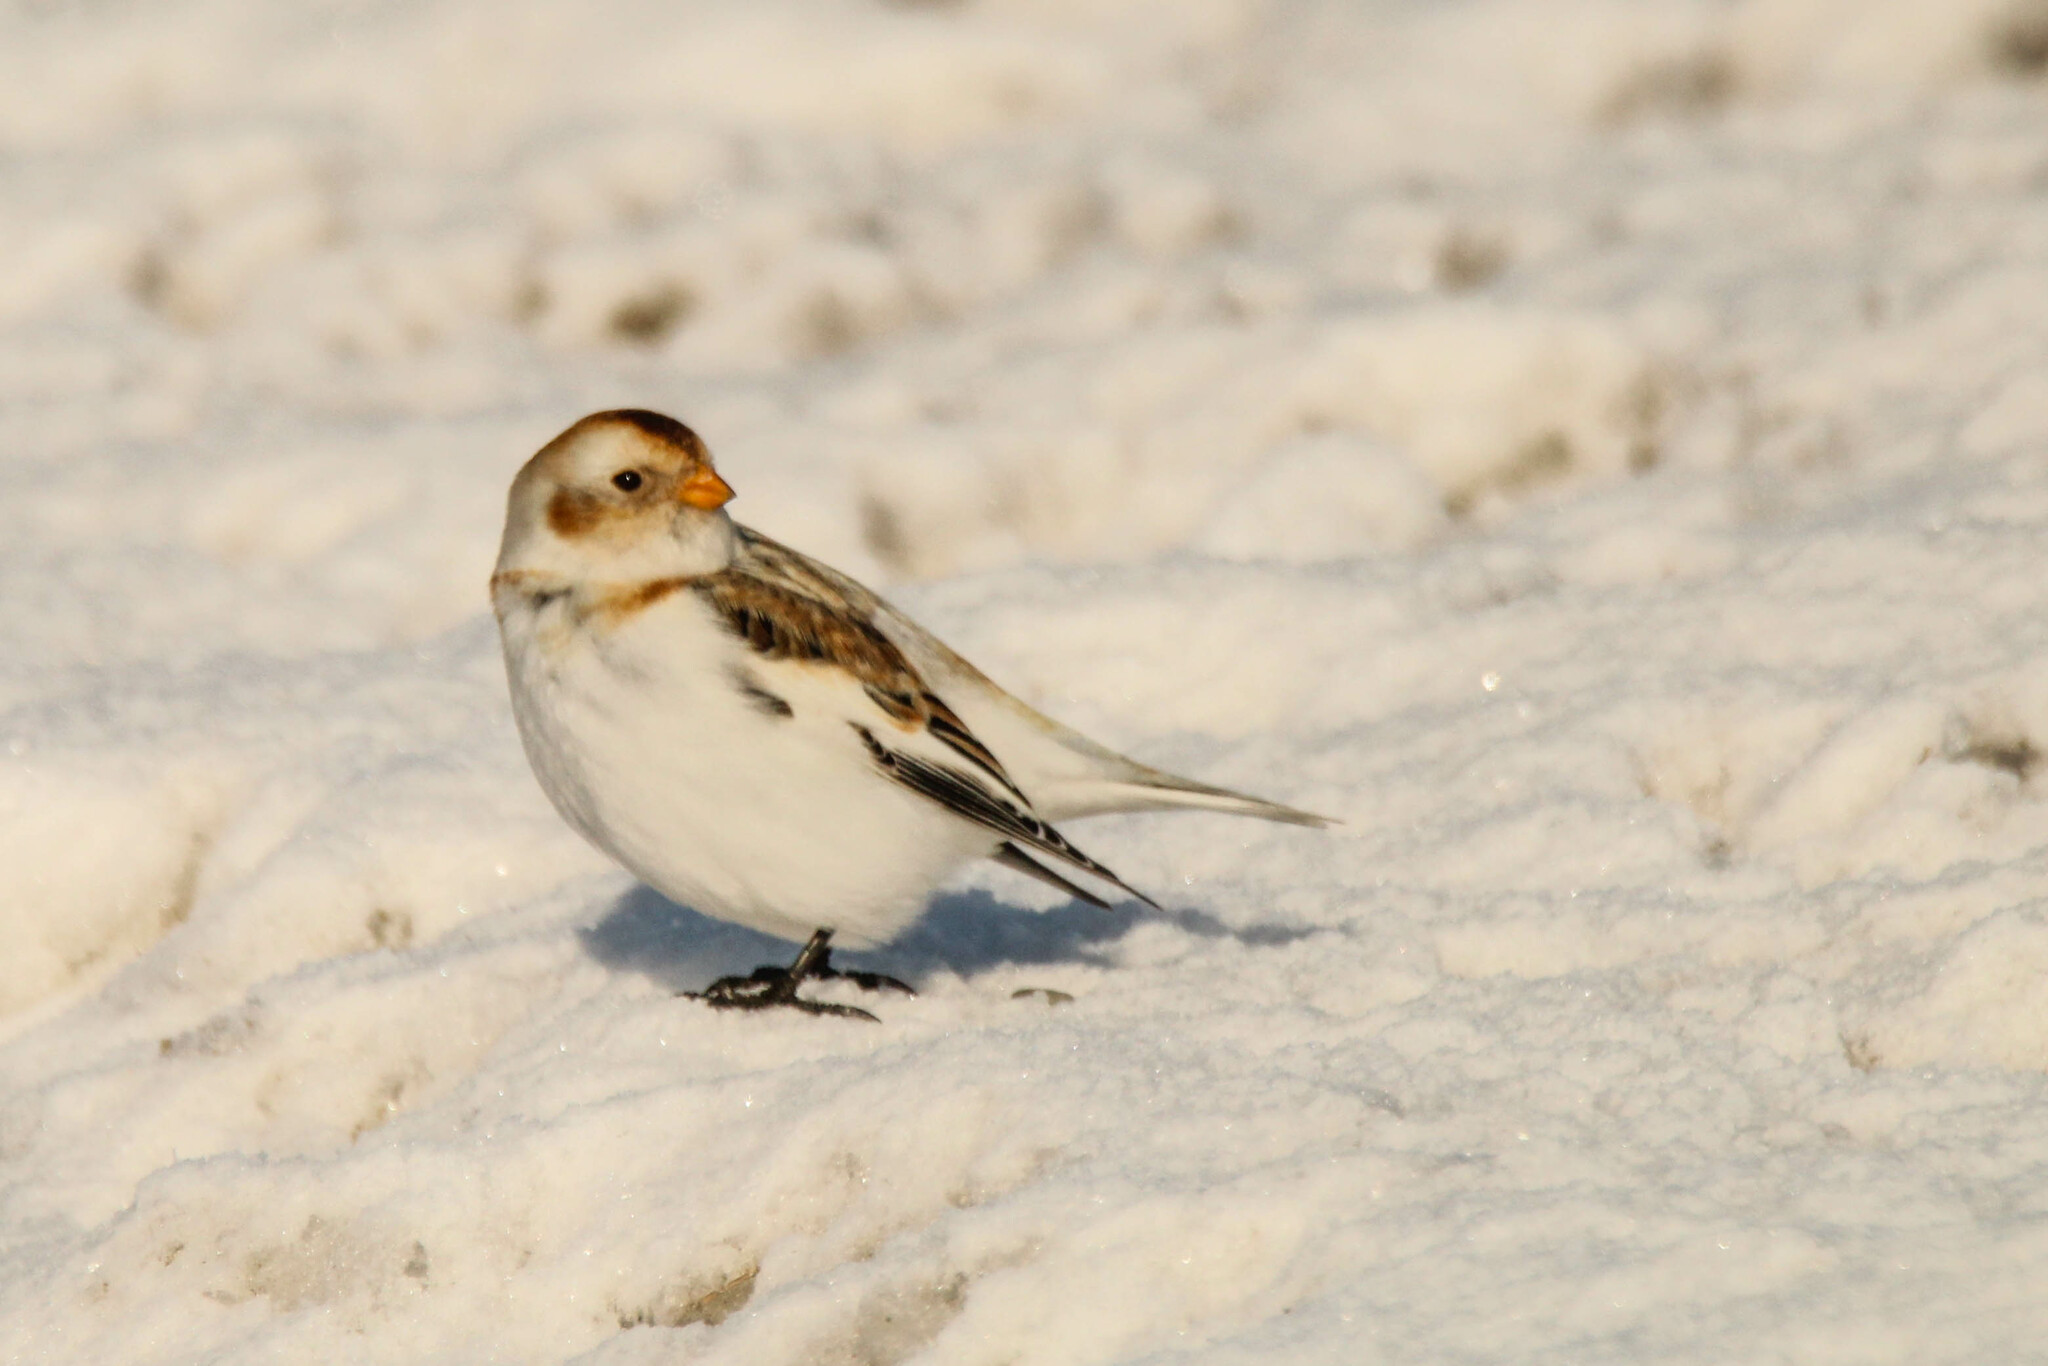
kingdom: Animalia
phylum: Chordata
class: Aves
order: Passeriformes
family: Calcariidae
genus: Plectrophenax
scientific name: Plectrophenax nivalis
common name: Snow bunting
